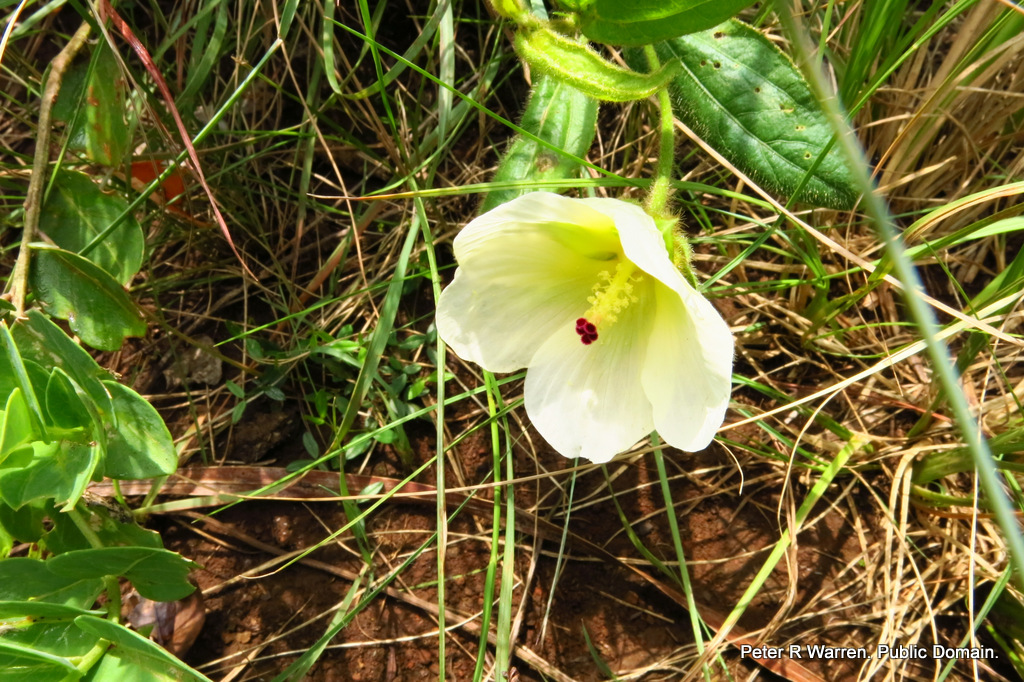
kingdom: Plantae
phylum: Tracheophyta
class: Magnoliopsida
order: Malvales
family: Malvaceae
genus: Hibiscus
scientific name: Hibiscus aethiopicus
